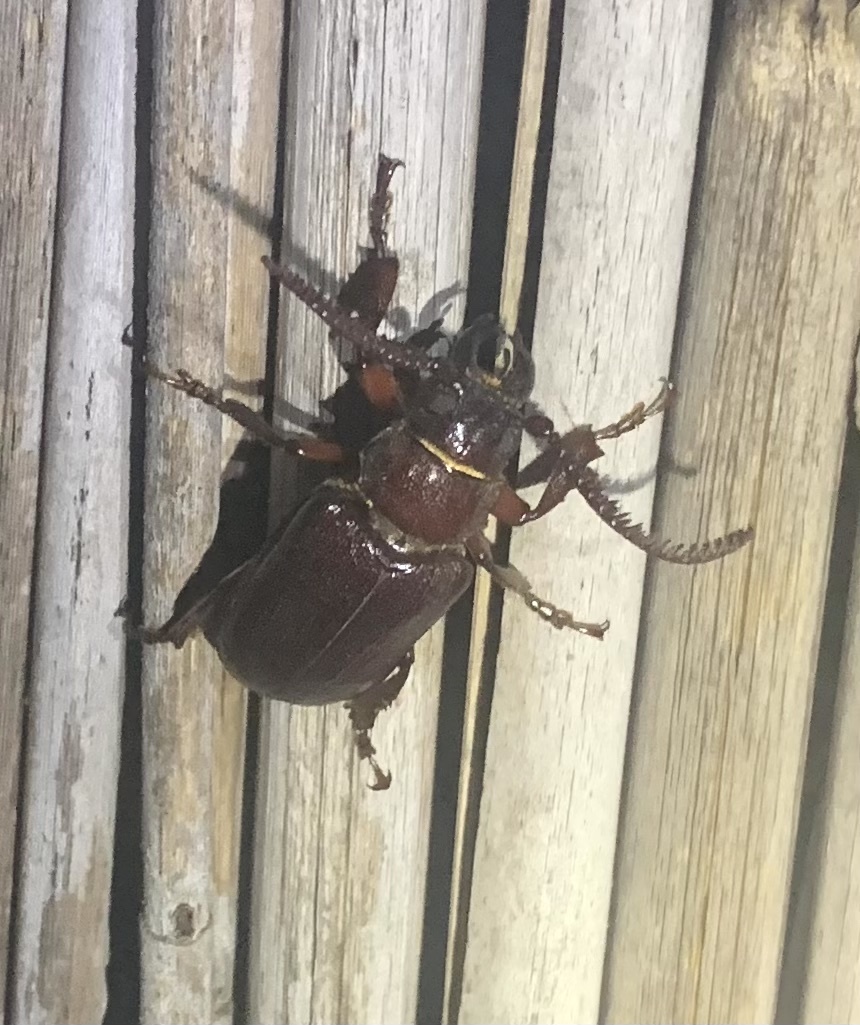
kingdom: Animalia
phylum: Arthropoda
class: Insecta
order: Coleoptera
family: Cerambycidae
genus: Cantharoctenus
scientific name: Cantharoctenus burchellii
